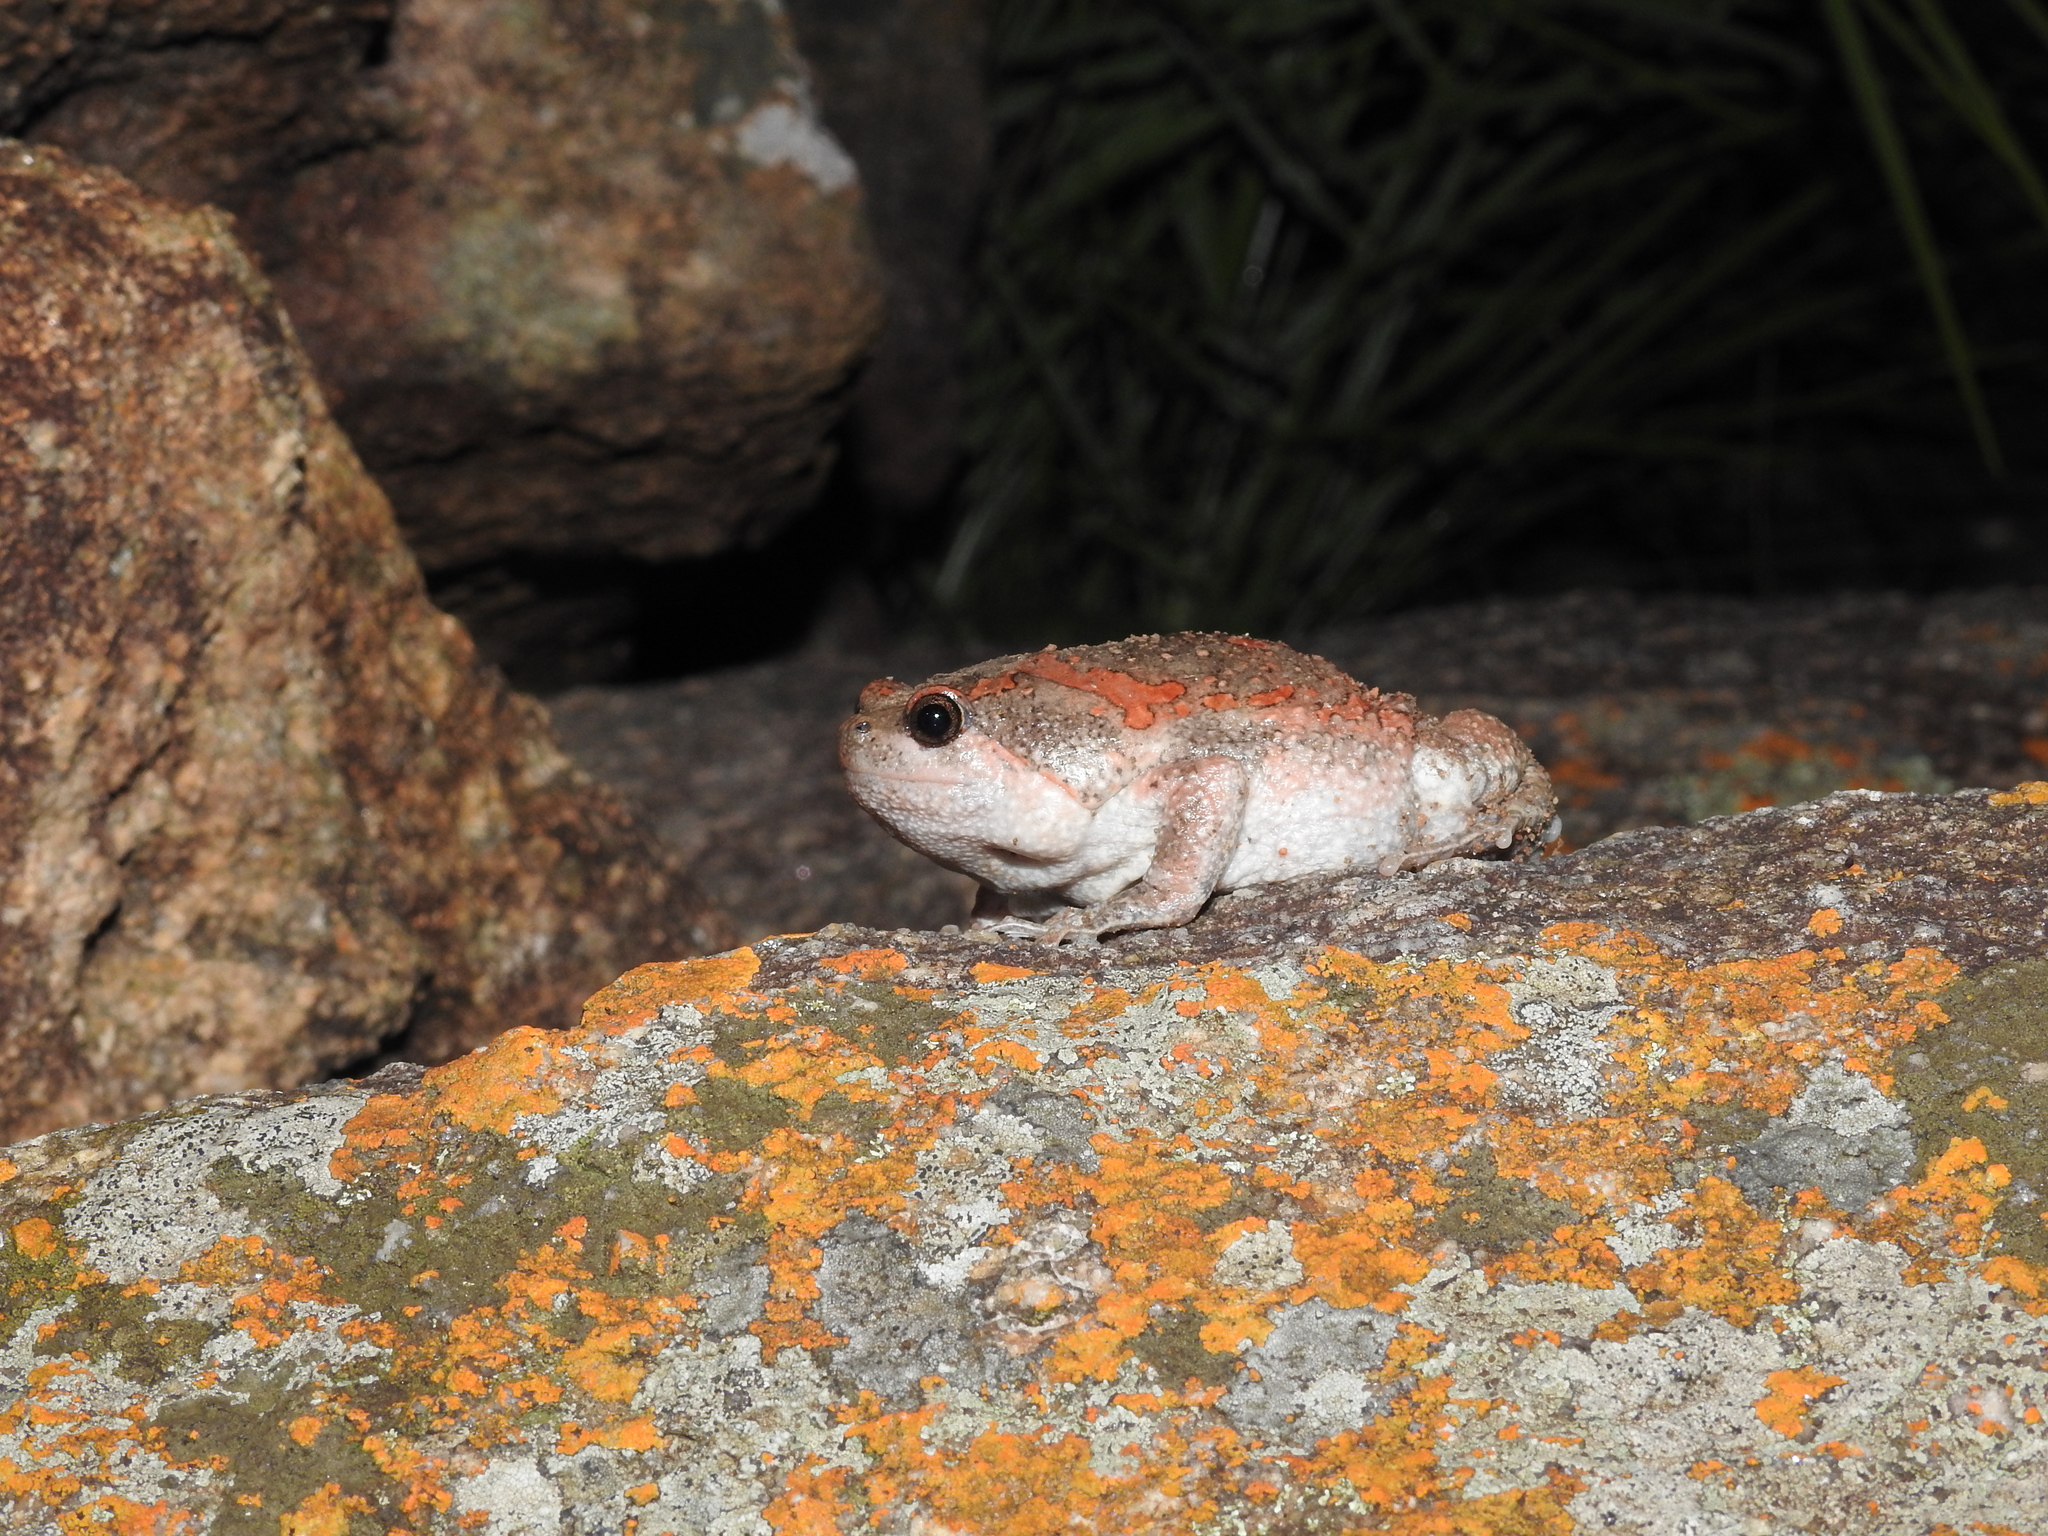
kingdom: Animalia
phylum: Chordata
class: Amphibia
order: Anura
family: Microhylidae
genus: Uperodon
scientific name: Uperodon taprobanicus
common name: Ceylon kaloula
